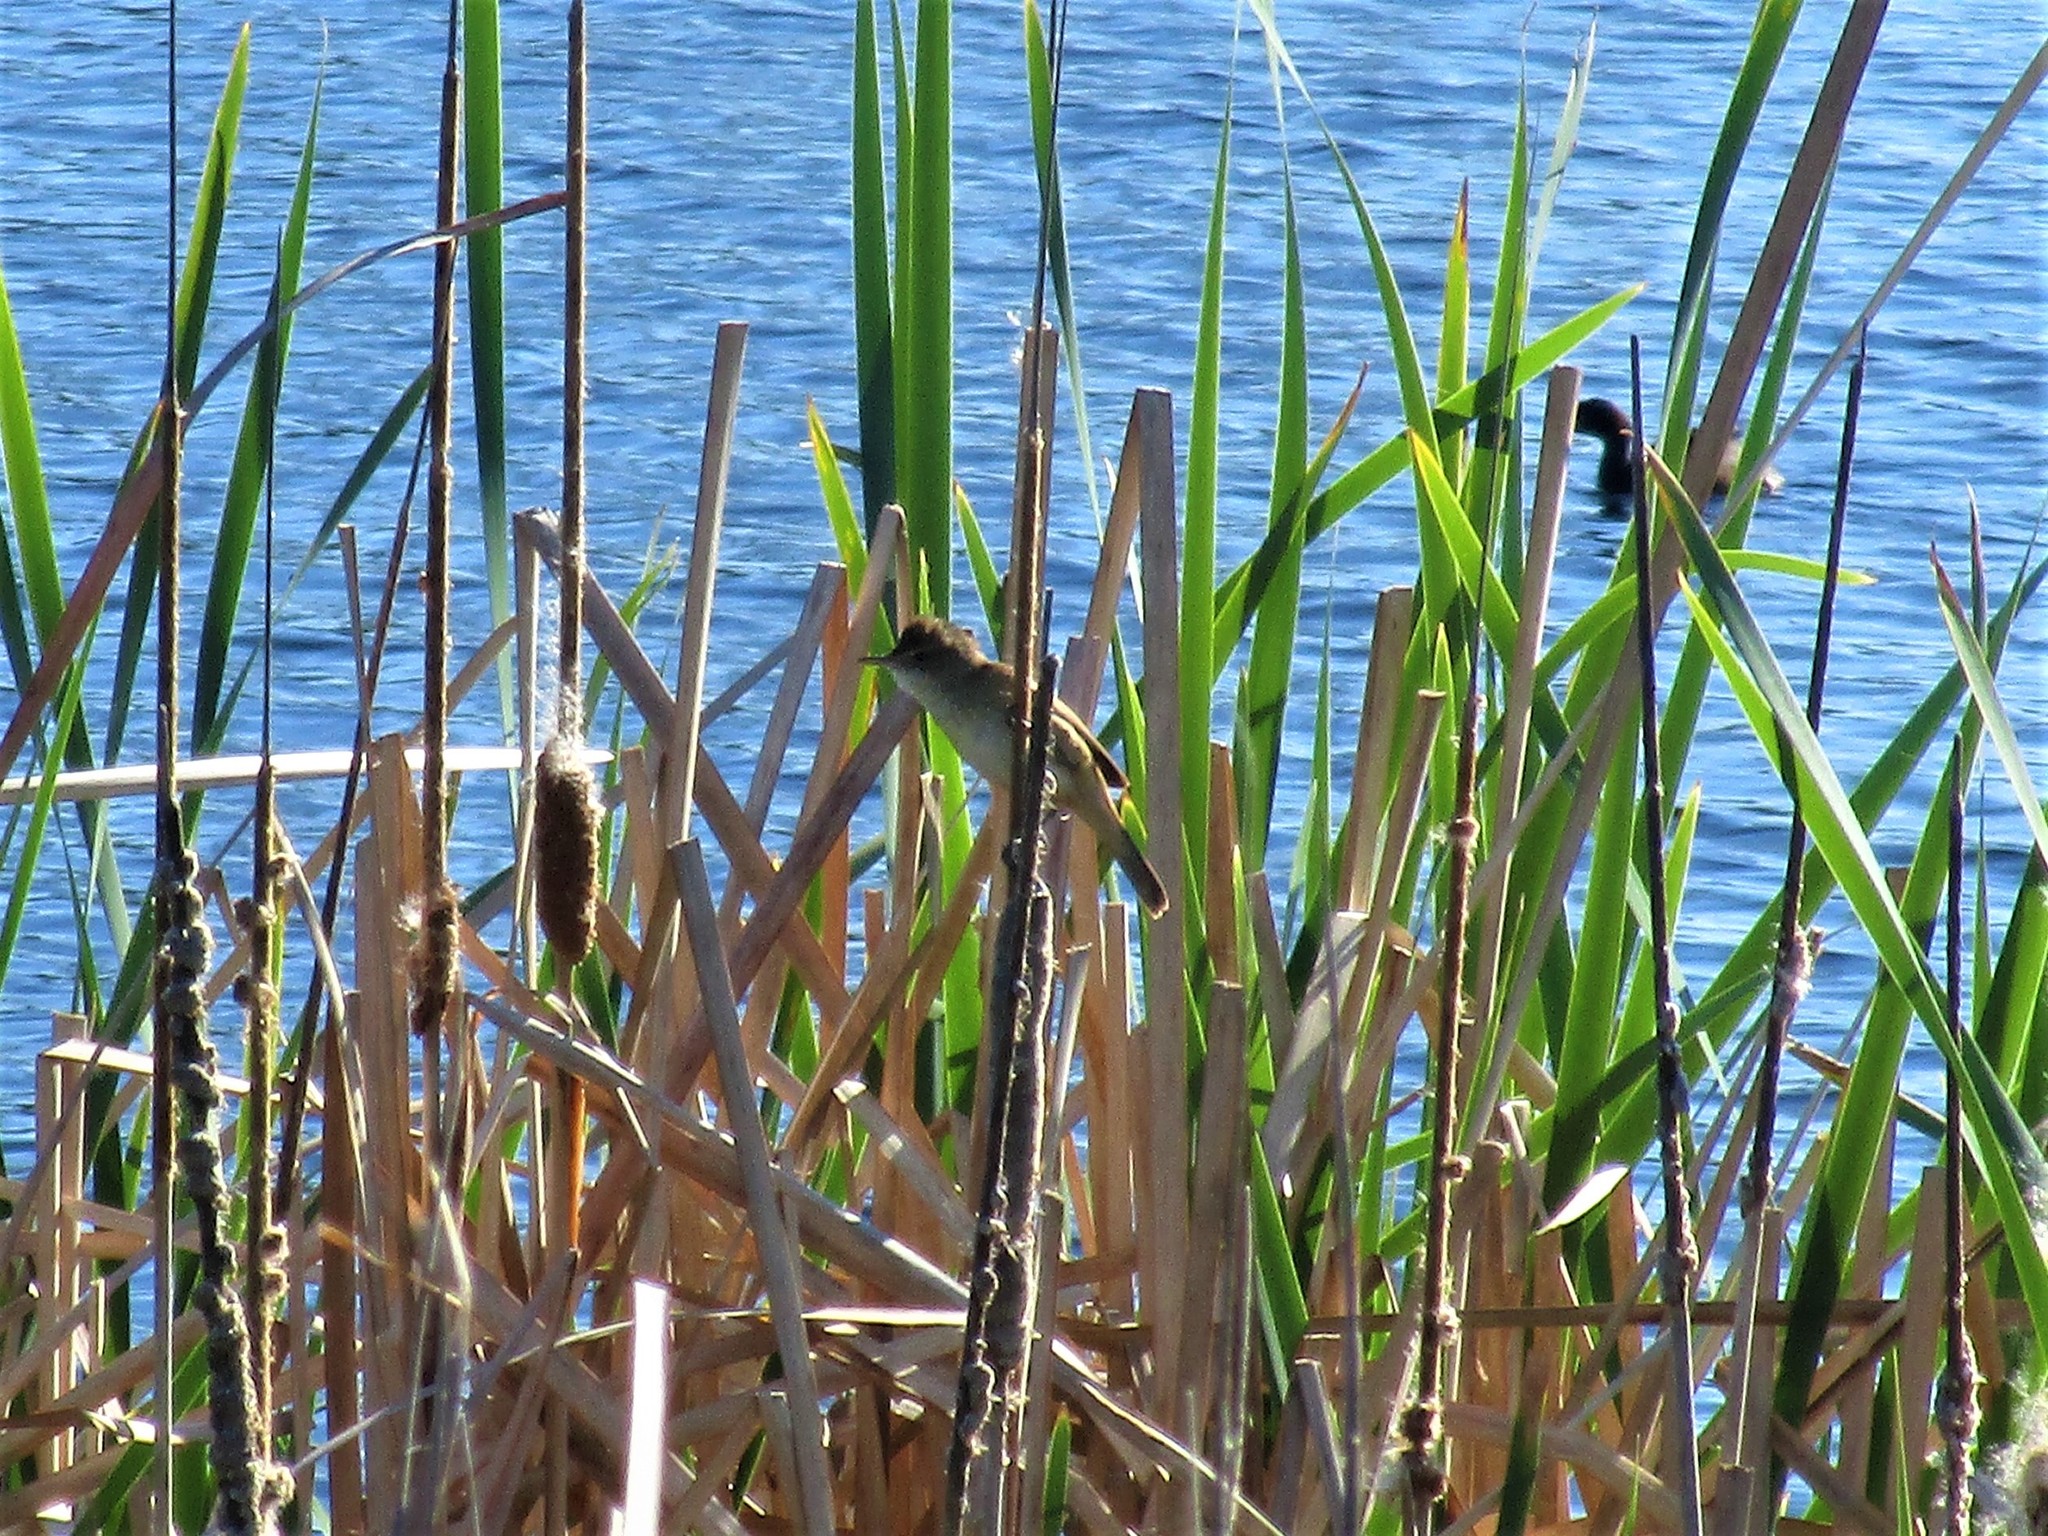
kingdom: Animalia
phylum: Chordata
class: Aves
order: Passeriformes
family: Acrocephalidae
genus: Acrocephalus
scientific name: Acrocephalus australis
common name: Australian reed warbler
